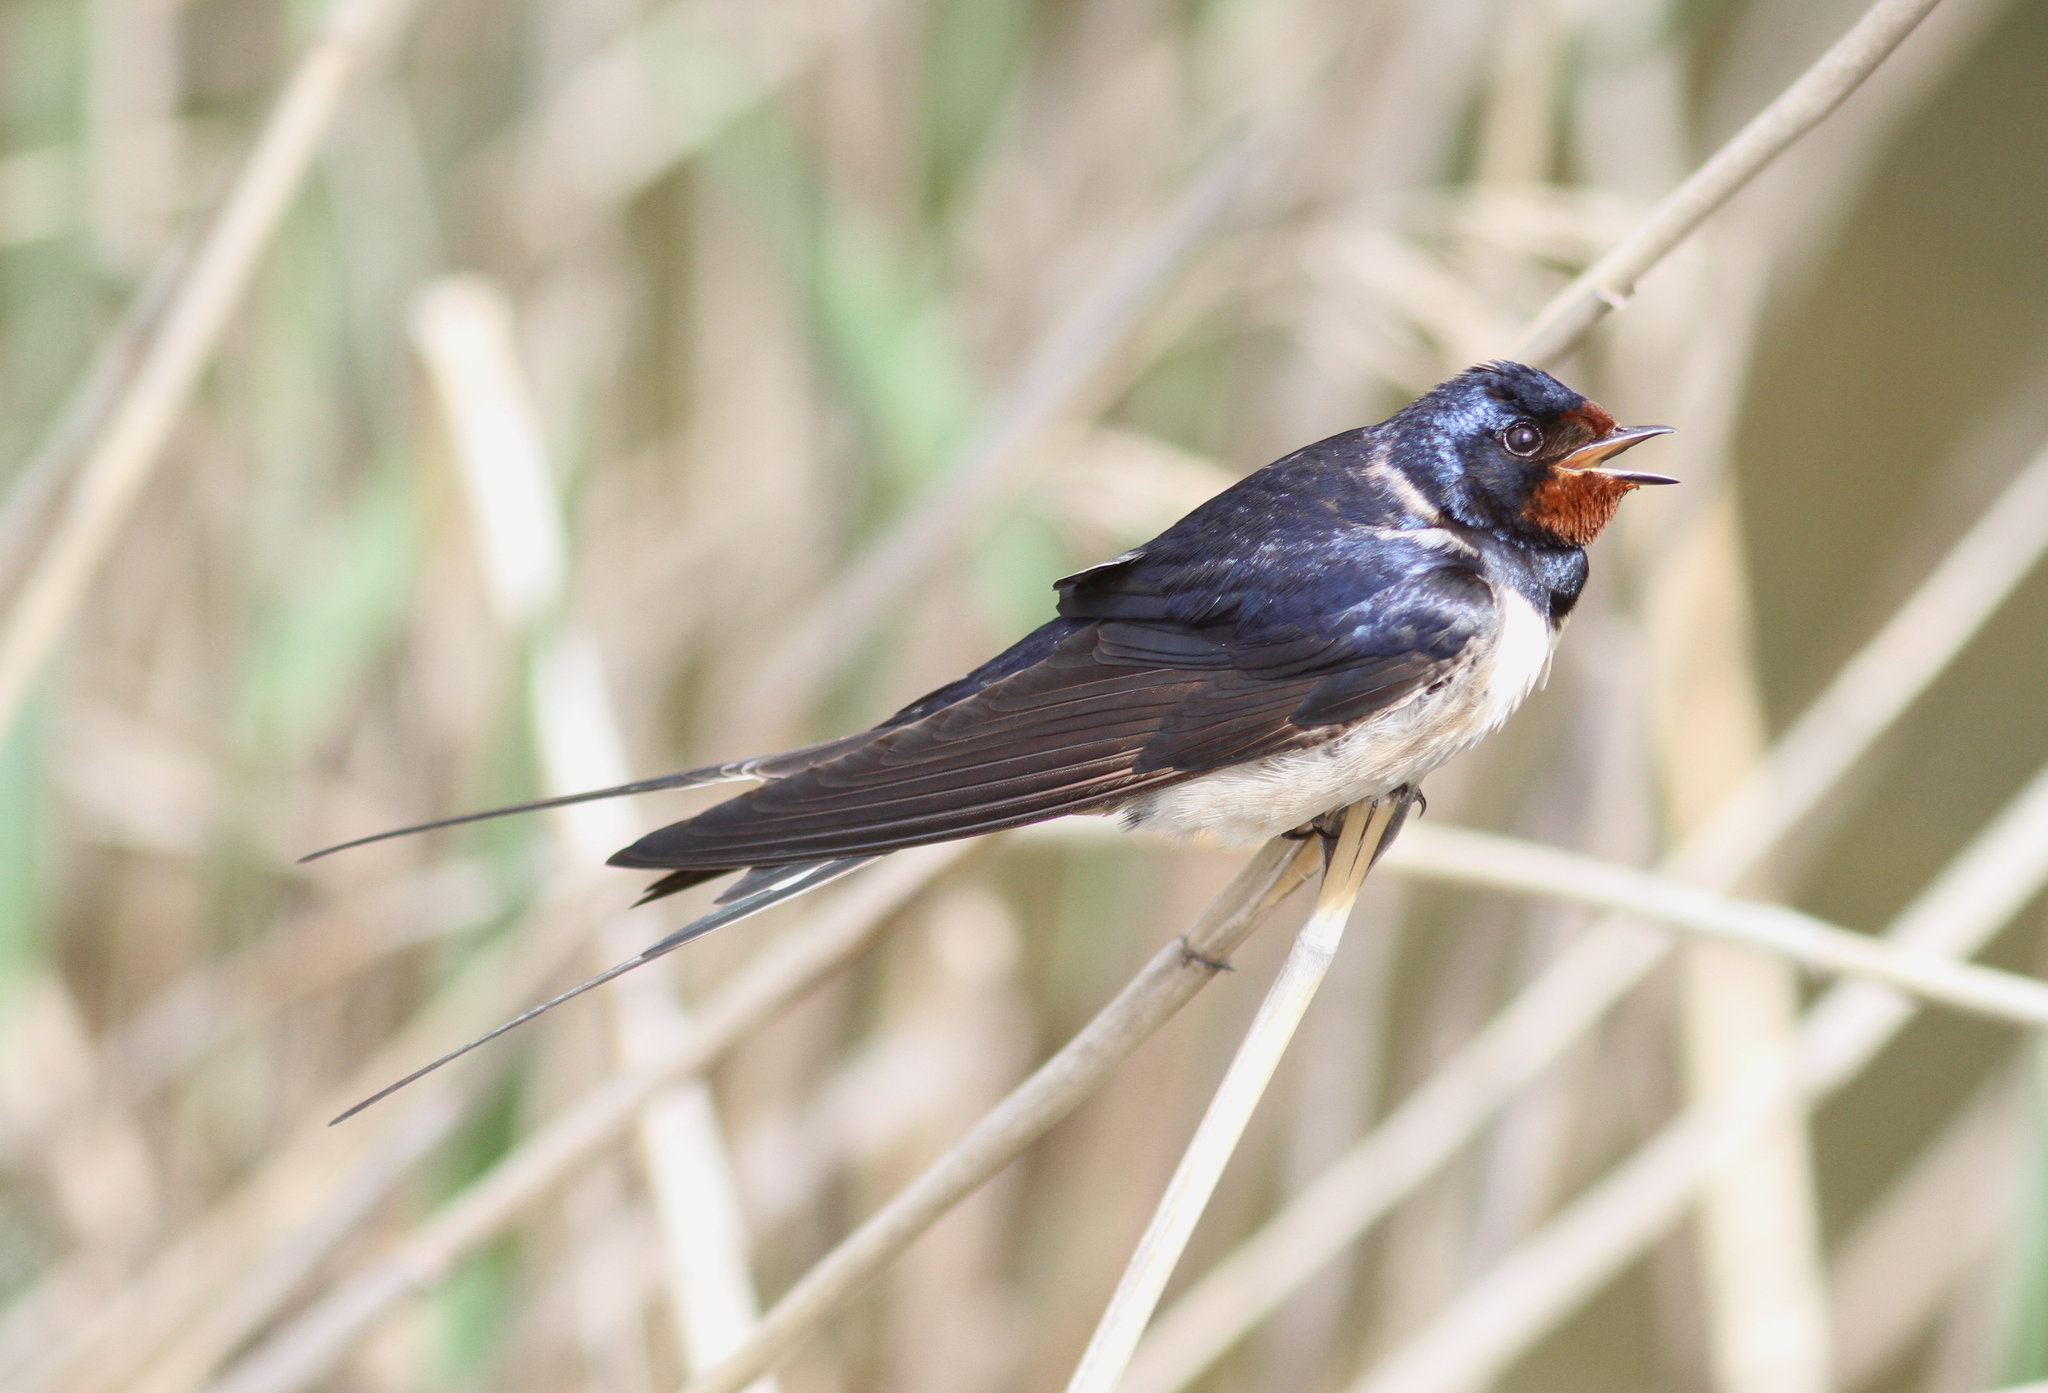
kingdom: Animalia
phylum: Chordata
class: Aves
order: Passeriformes
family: Hirundinidae
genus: Hirundo
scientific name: Hirundo rustica
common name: Barn swallow
